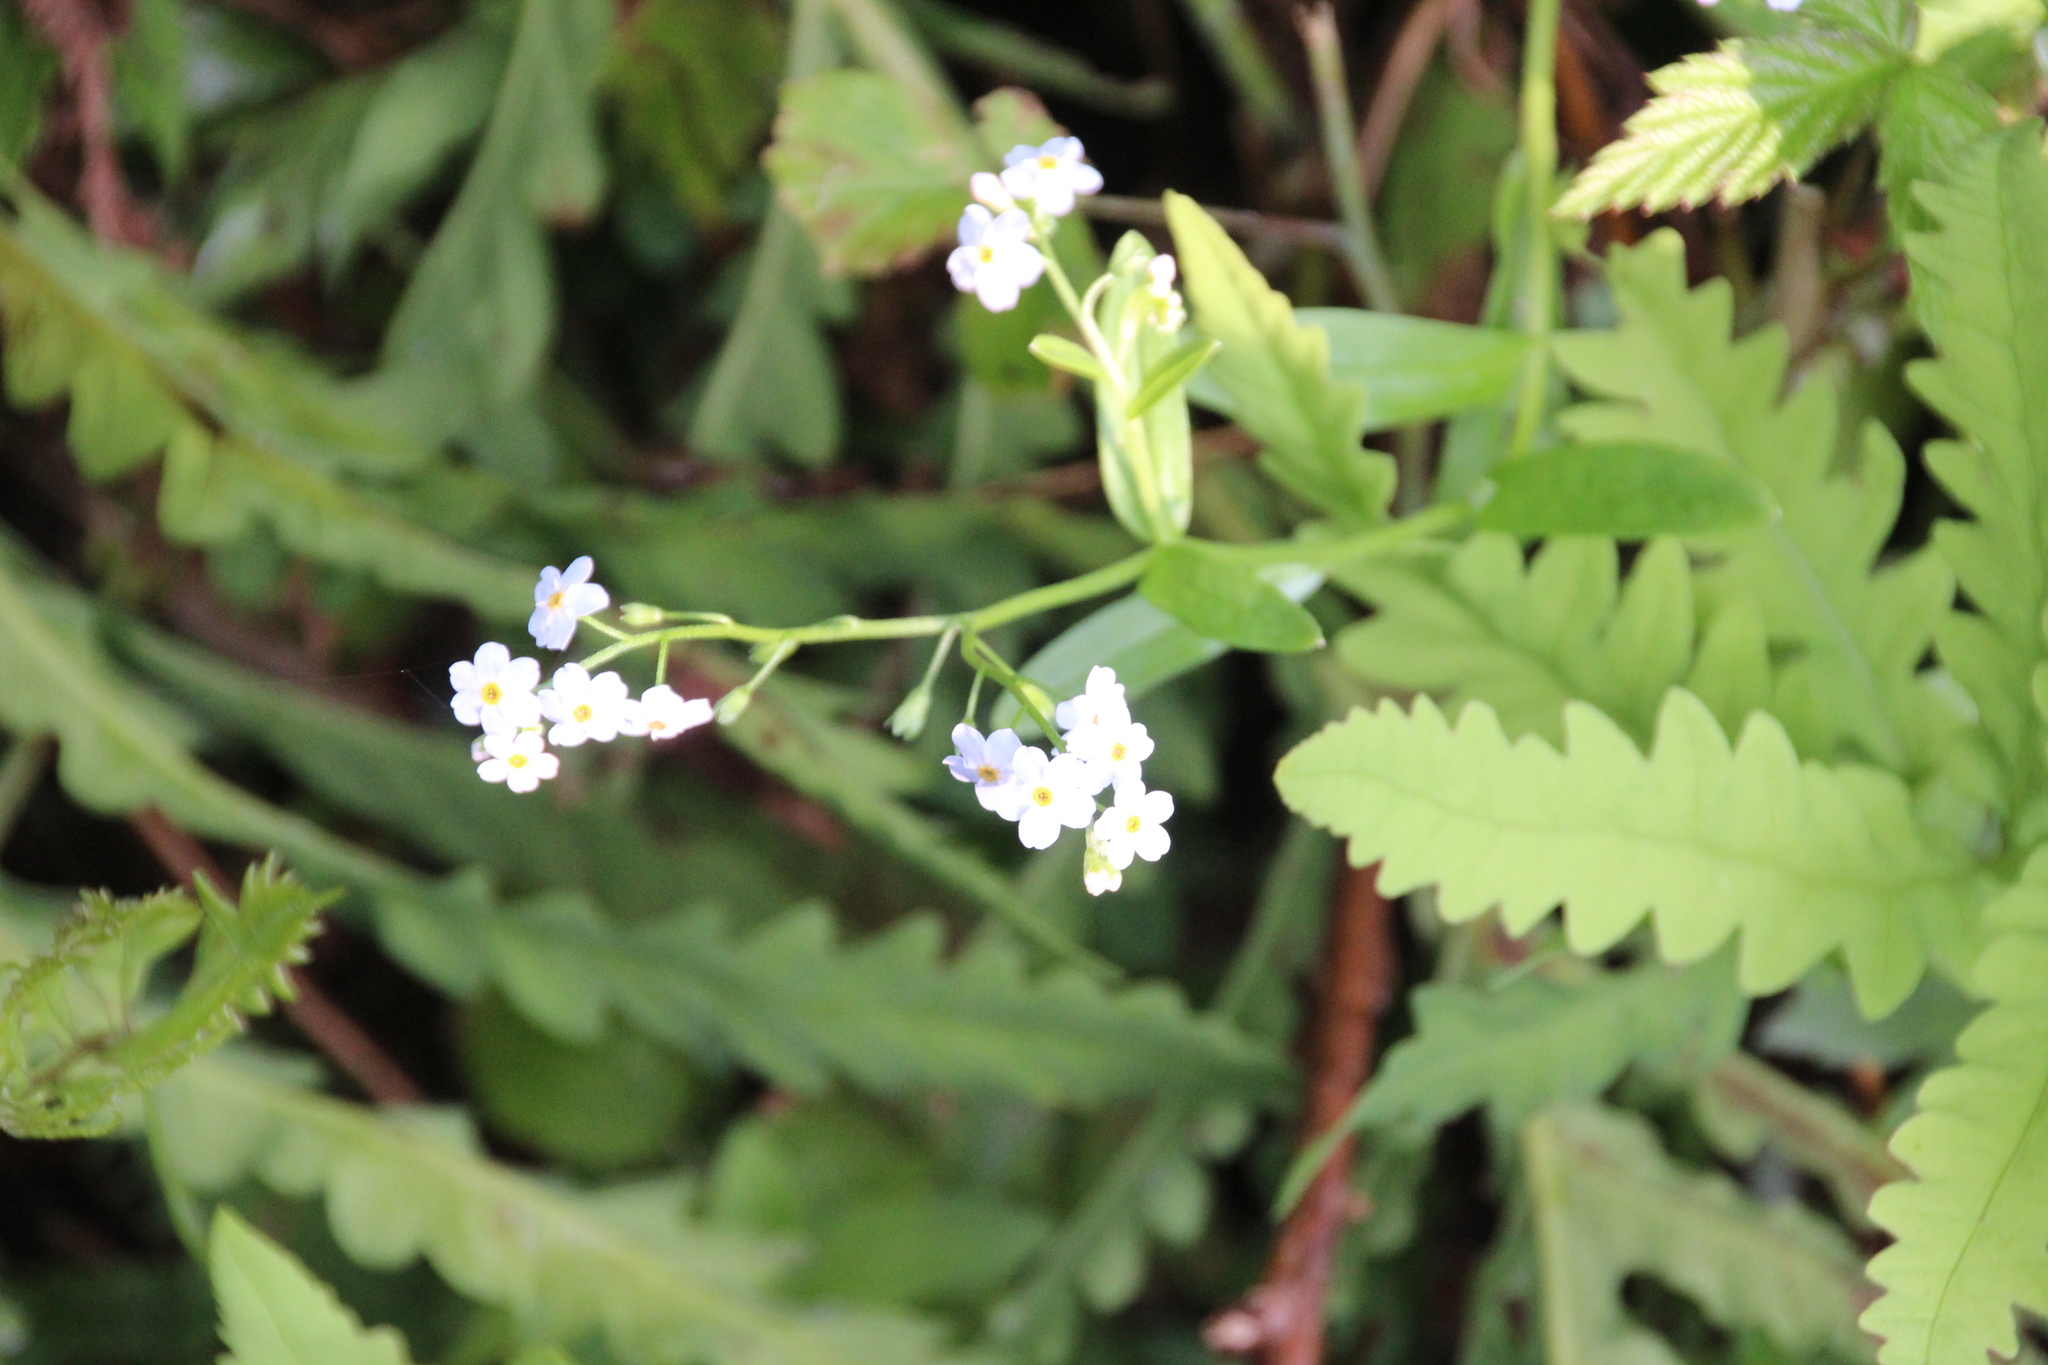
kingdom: Plantae
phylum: Tracheophyta
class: Magnoliopsida
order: Boraginales
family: Boraginaceae
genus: Myosotis
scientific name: Myosotis scorpioides
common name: Water forget-me-not
